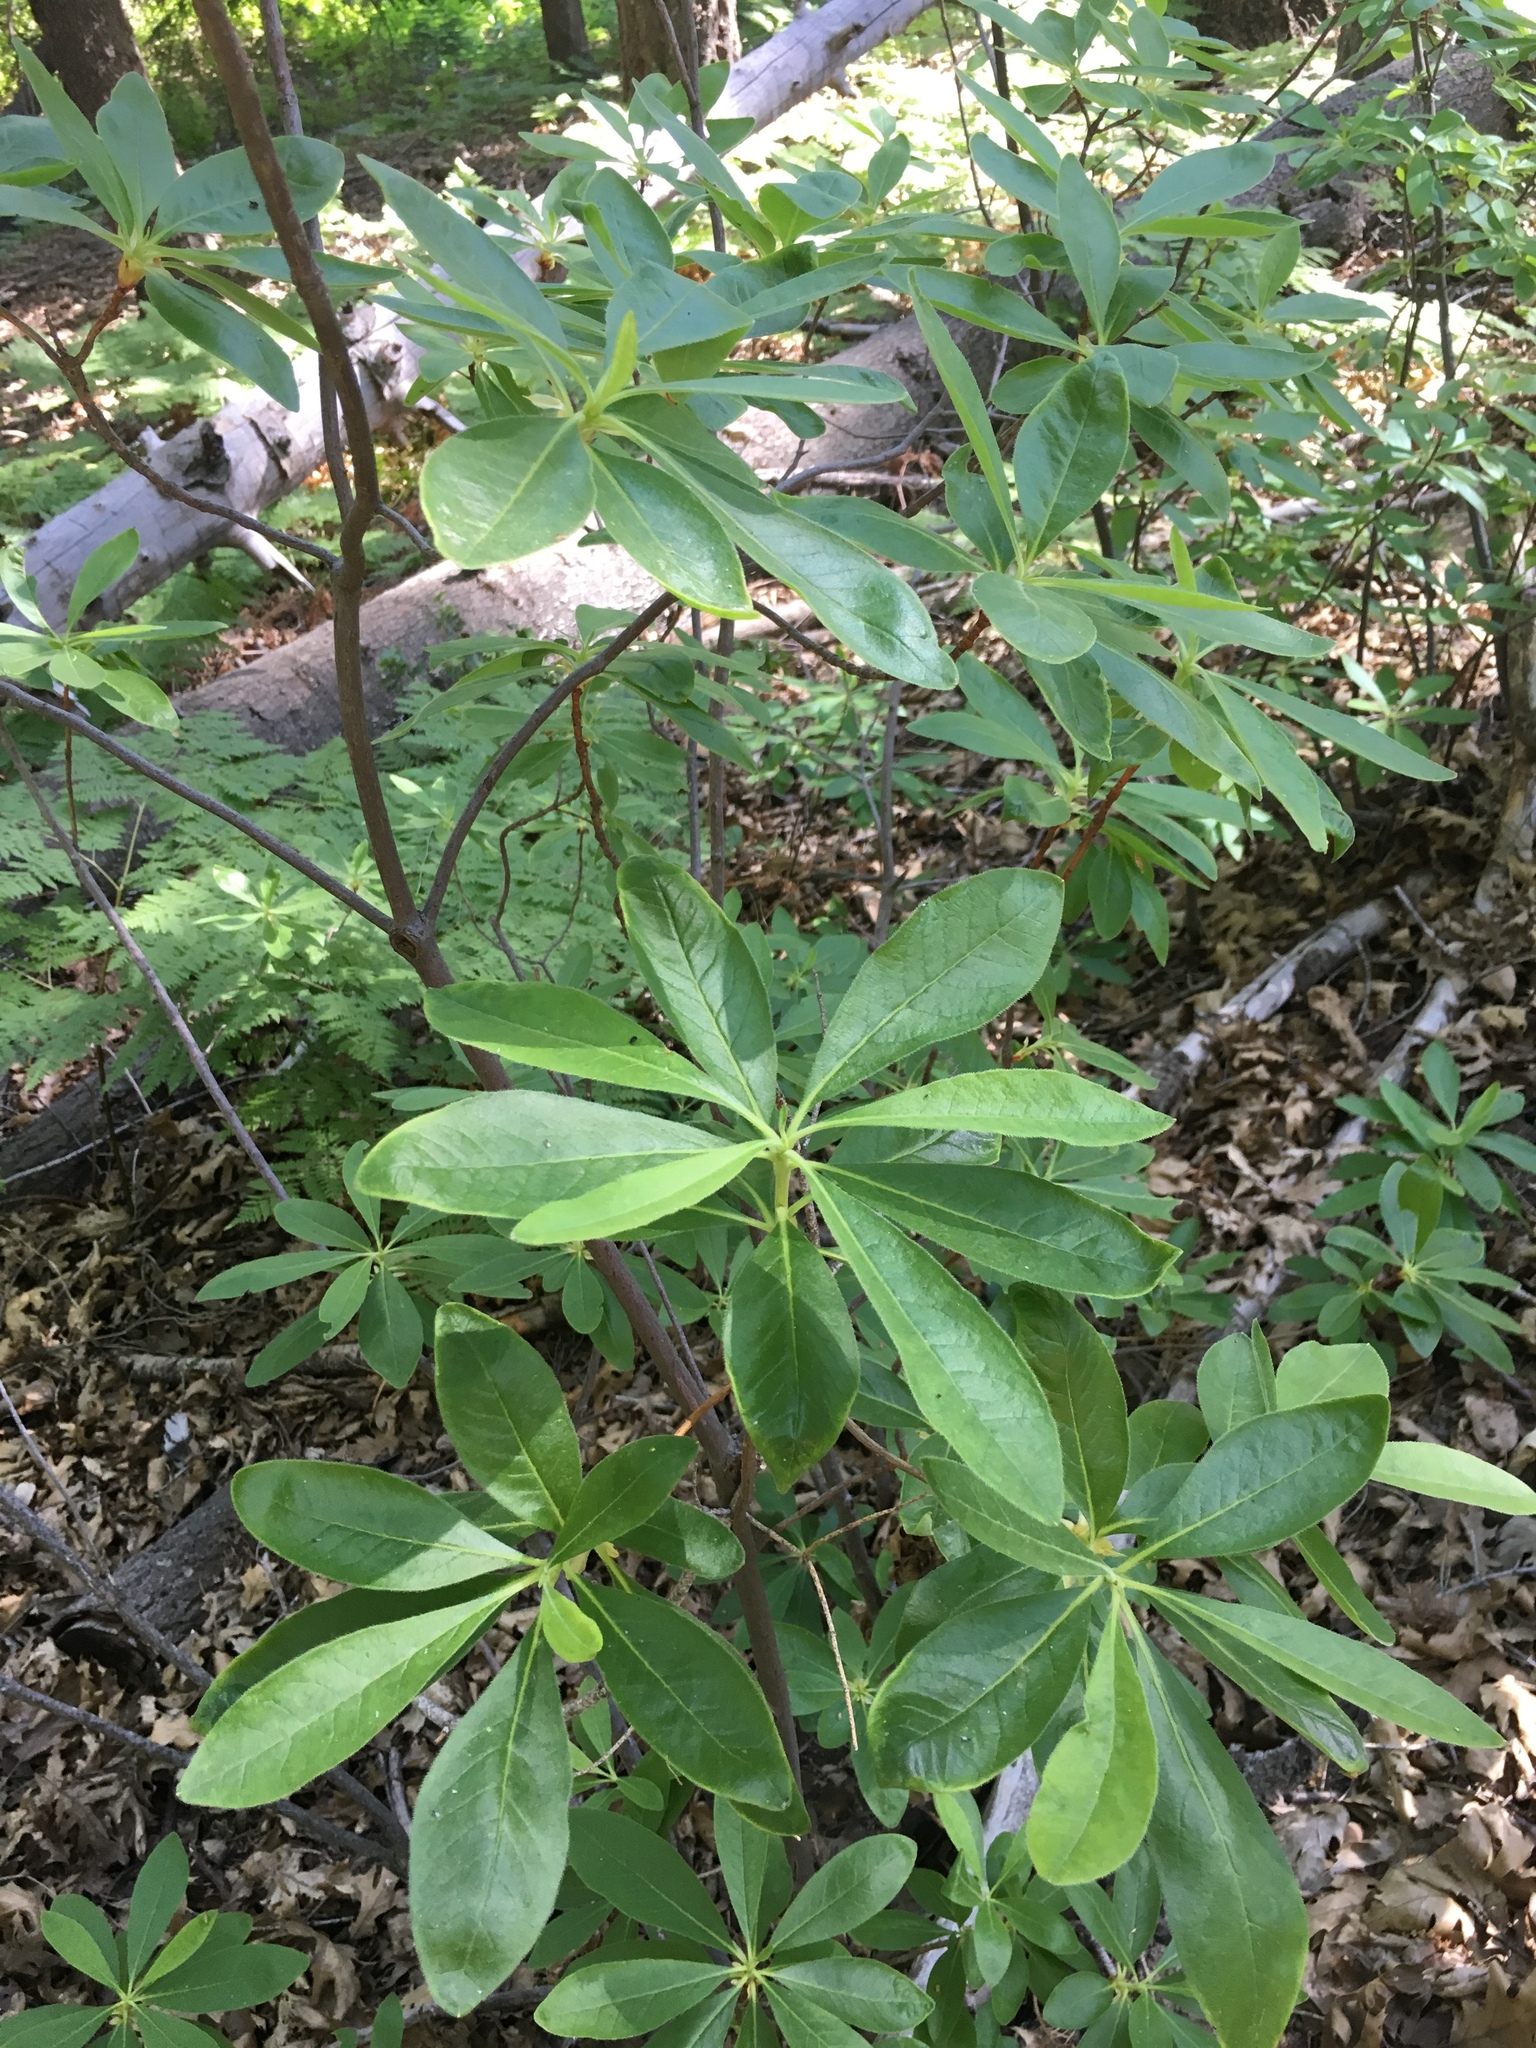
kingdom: Plantae
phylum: Tracheophyta
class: Magnoliopsida
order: Ericales
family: Ericaceae
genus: Rhododendron
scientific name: Rhododendron occidentale
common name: Western azalea
